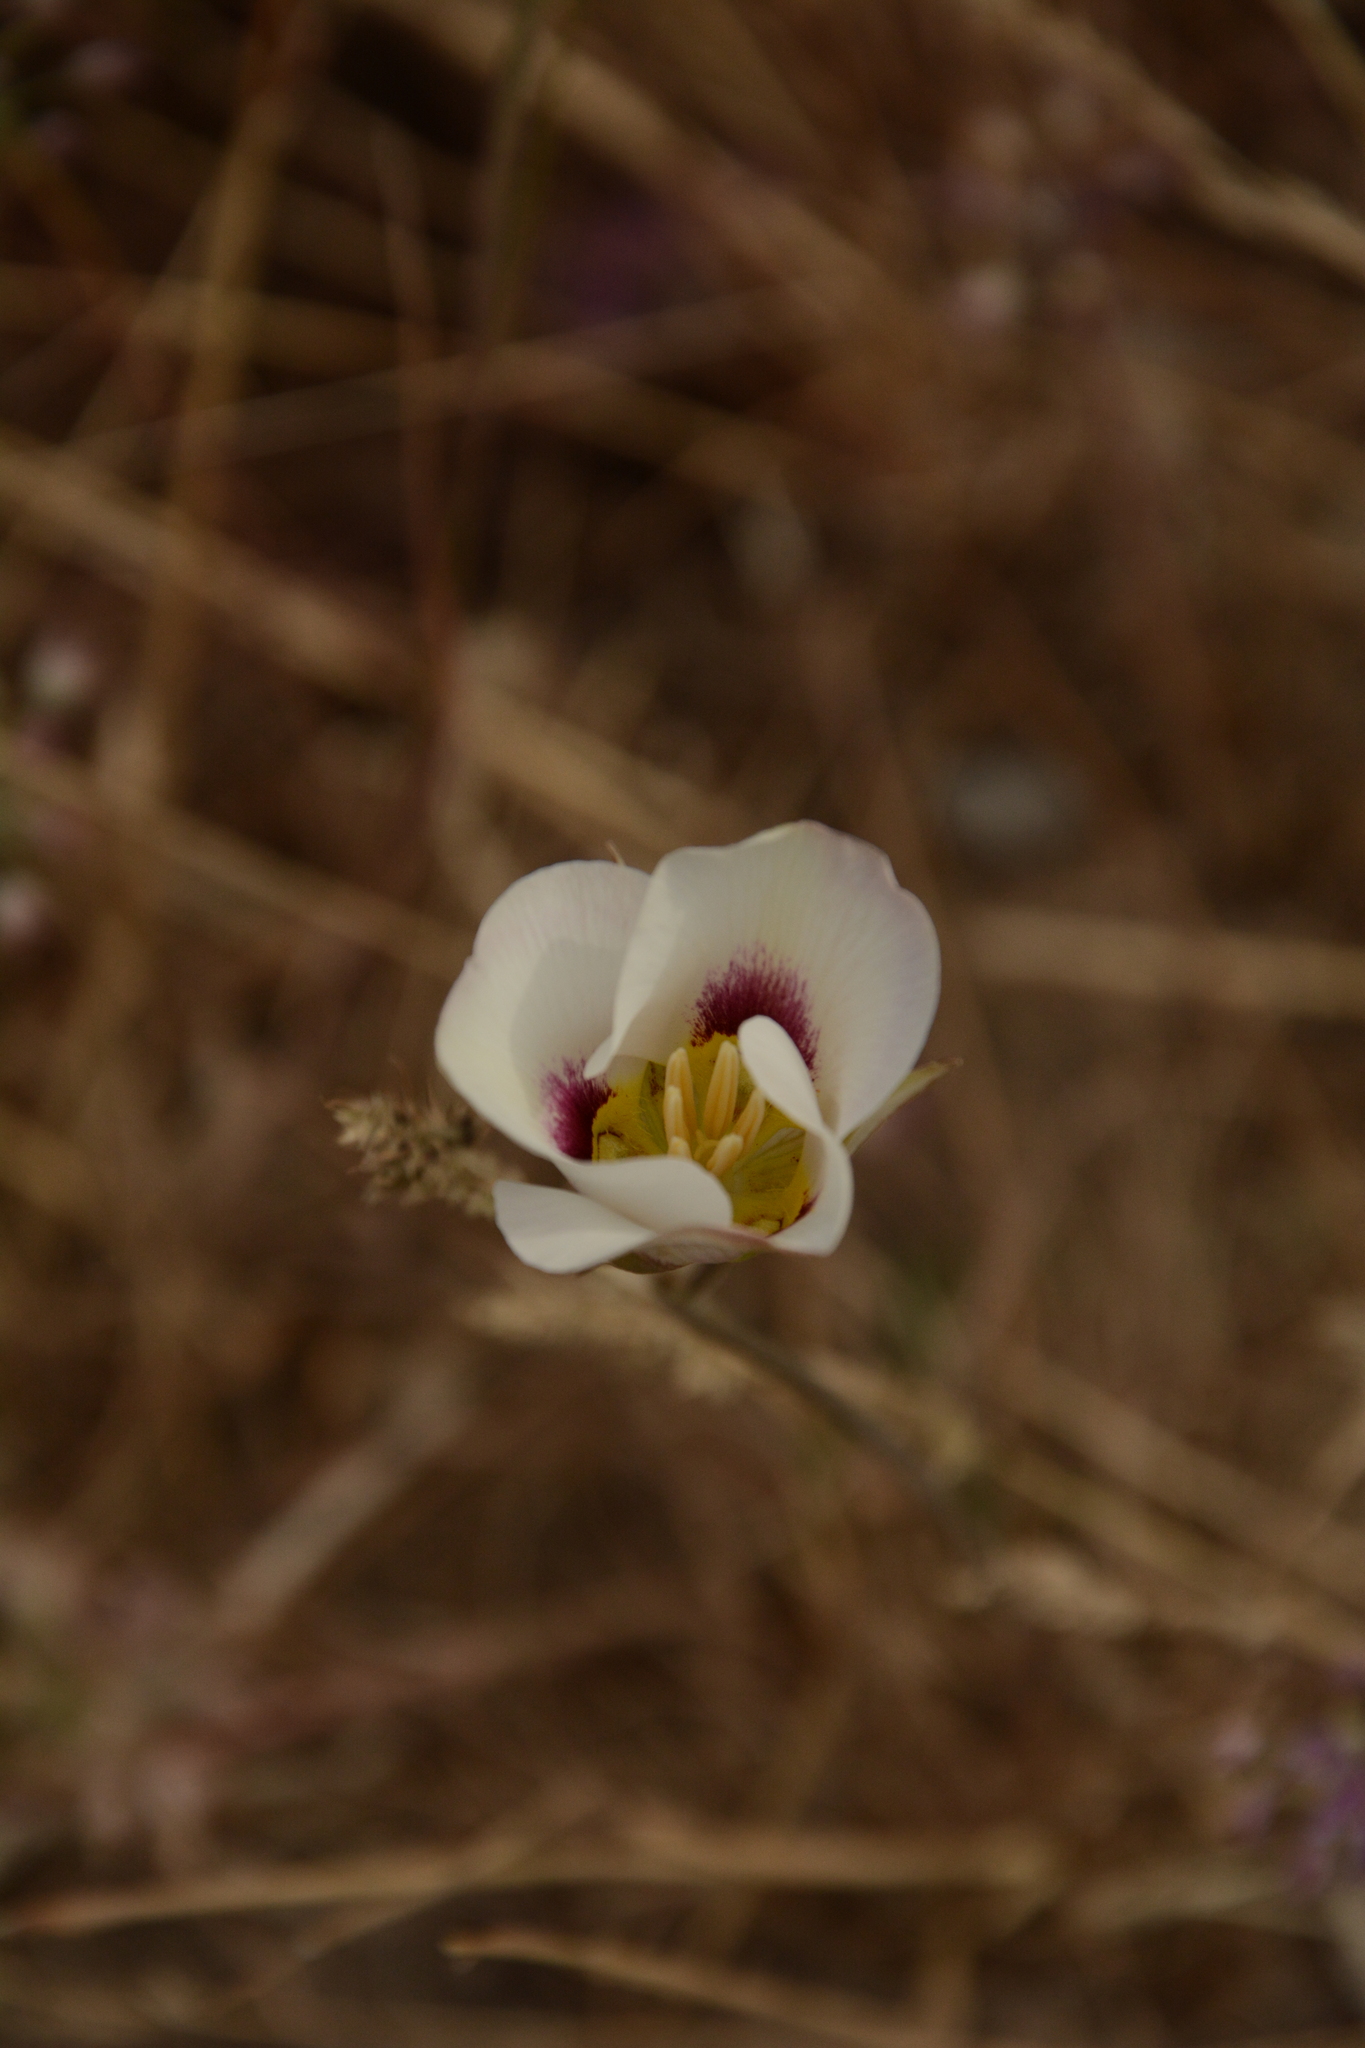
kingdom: Plantae
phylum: Tracheophyta
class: Liliopsida
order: Liliales
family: Liliaceae
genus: Calochortus
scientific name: Calochortus nuttallii
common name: Sego-lily
